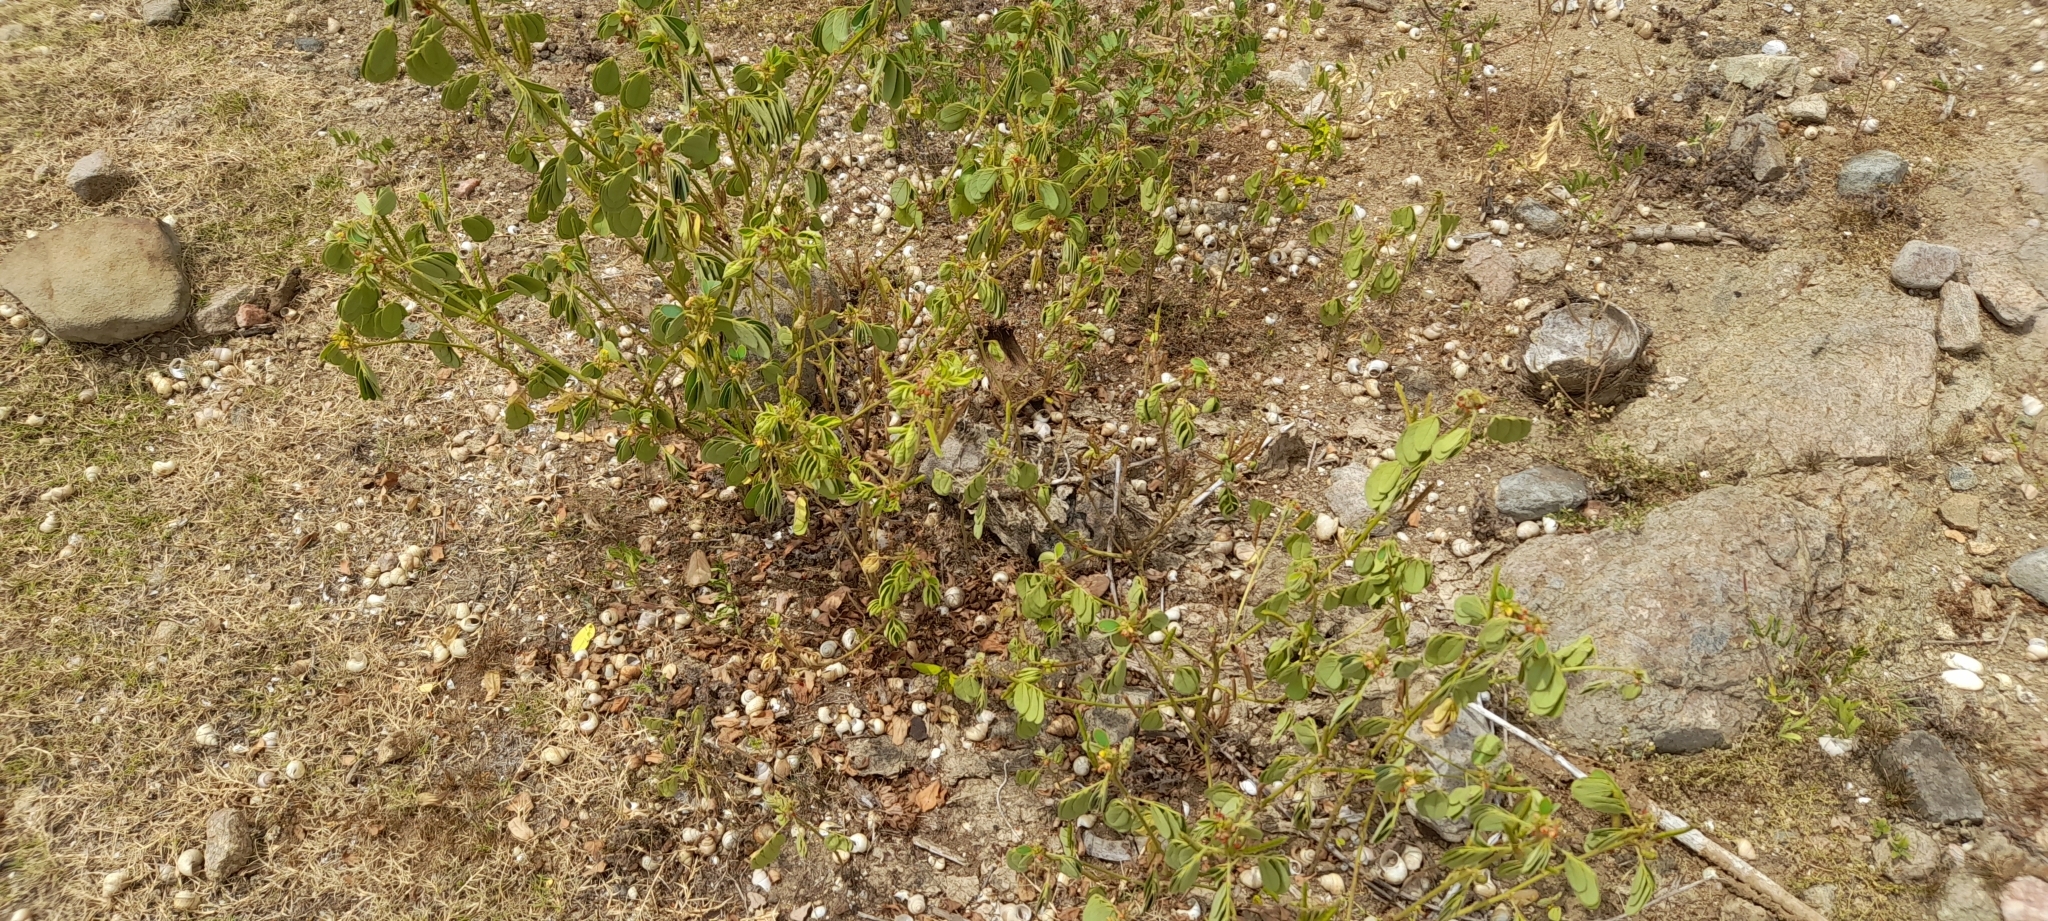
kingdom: Plantae
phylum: Tracheophyta
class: Magnoliopsida
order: Fabales
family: Fabaceae
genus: Senna
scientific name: Senna uniflora
